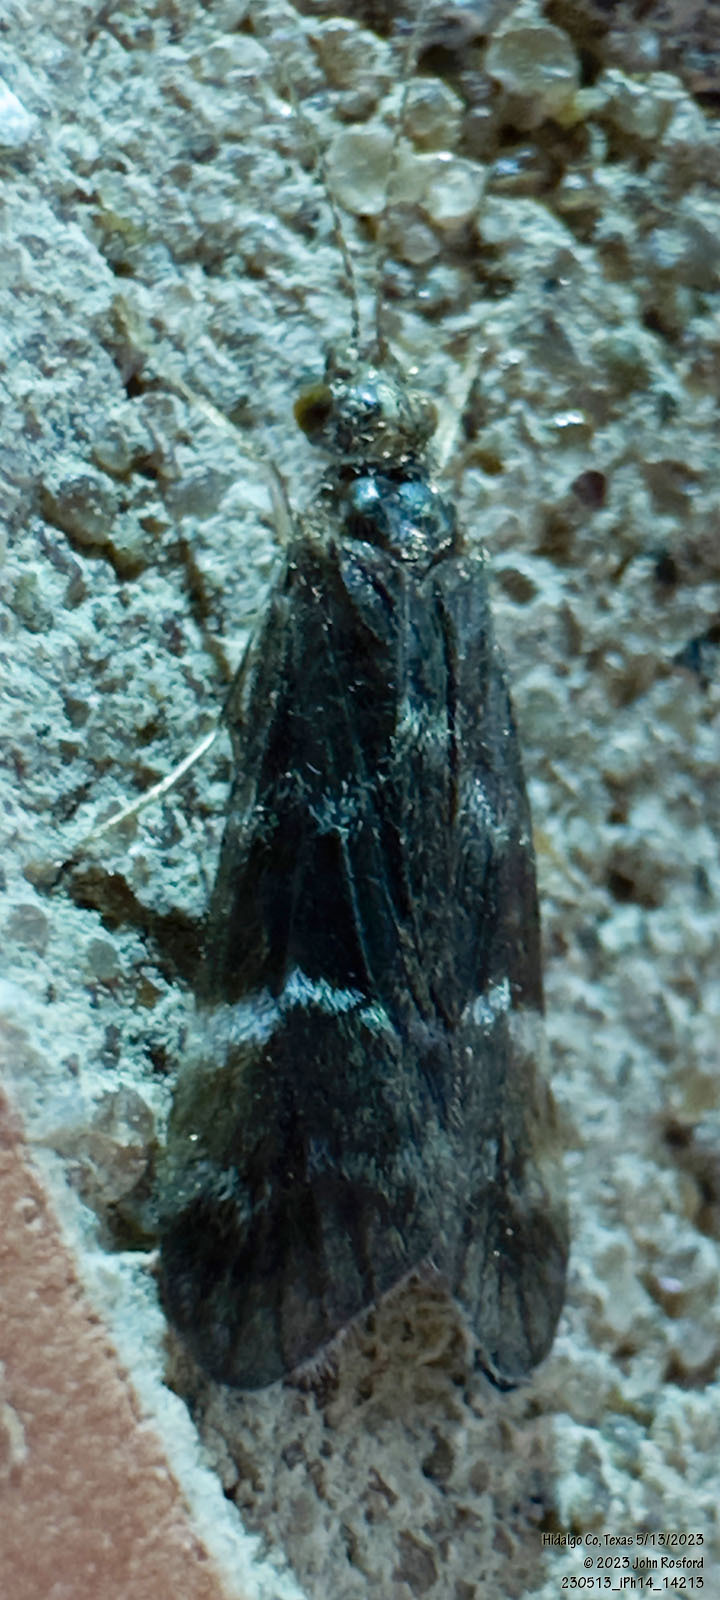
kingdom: Animalia
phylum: Arthropoda
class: Insecta
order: Trichoptera
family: Hydropsychidae
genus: Smicridea
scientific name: Smicridea fasciatella
